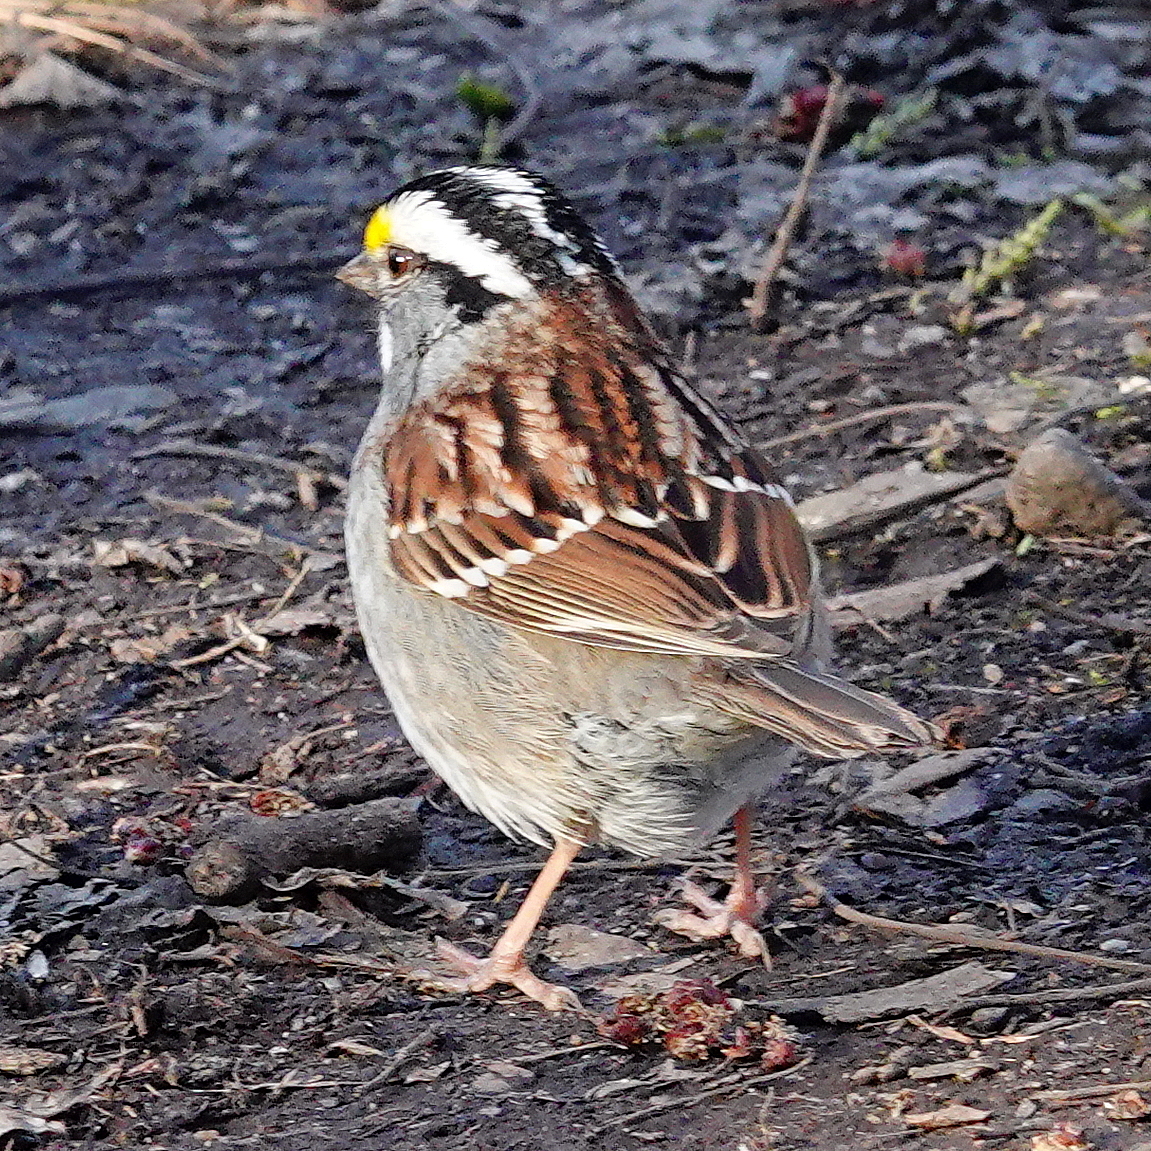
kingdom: Animalia
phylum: Chordata
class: Aves
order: Passeriformes
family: Passerellidae
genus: Zonotrichia
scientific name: Zonotrichia albicollis
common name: White-throated sparrow
